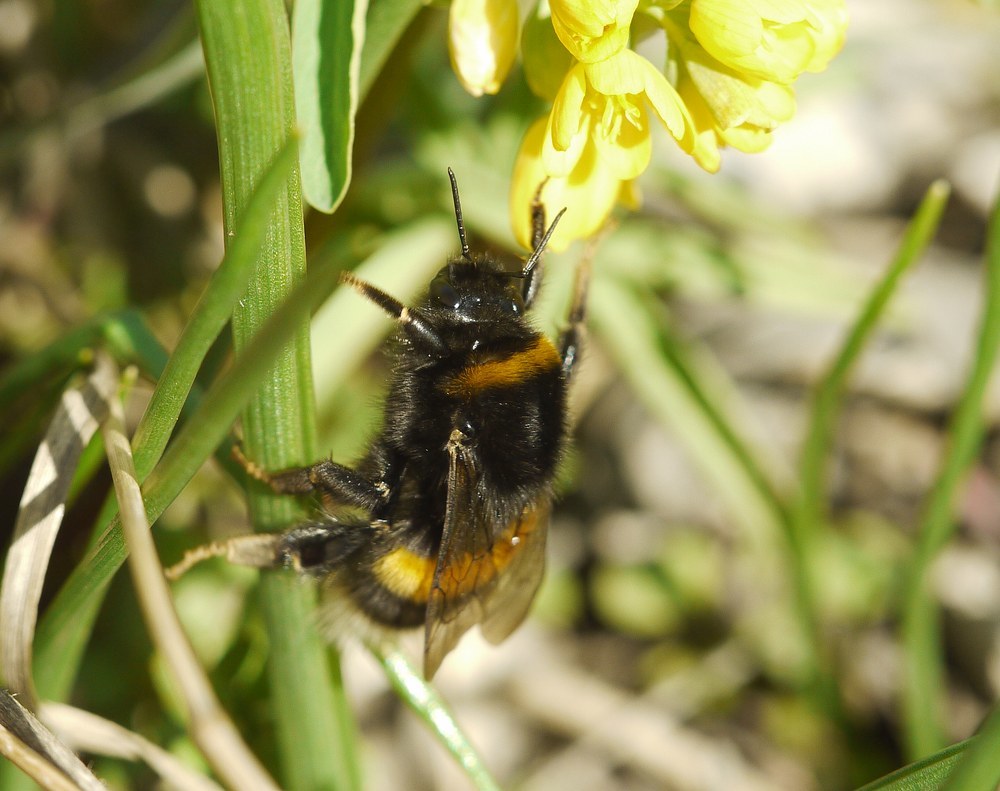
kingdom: Animalia
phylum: Arthropoda
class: Insecta
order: Hymenoptera
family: Apidae
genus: Bombus
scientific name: Bombus
